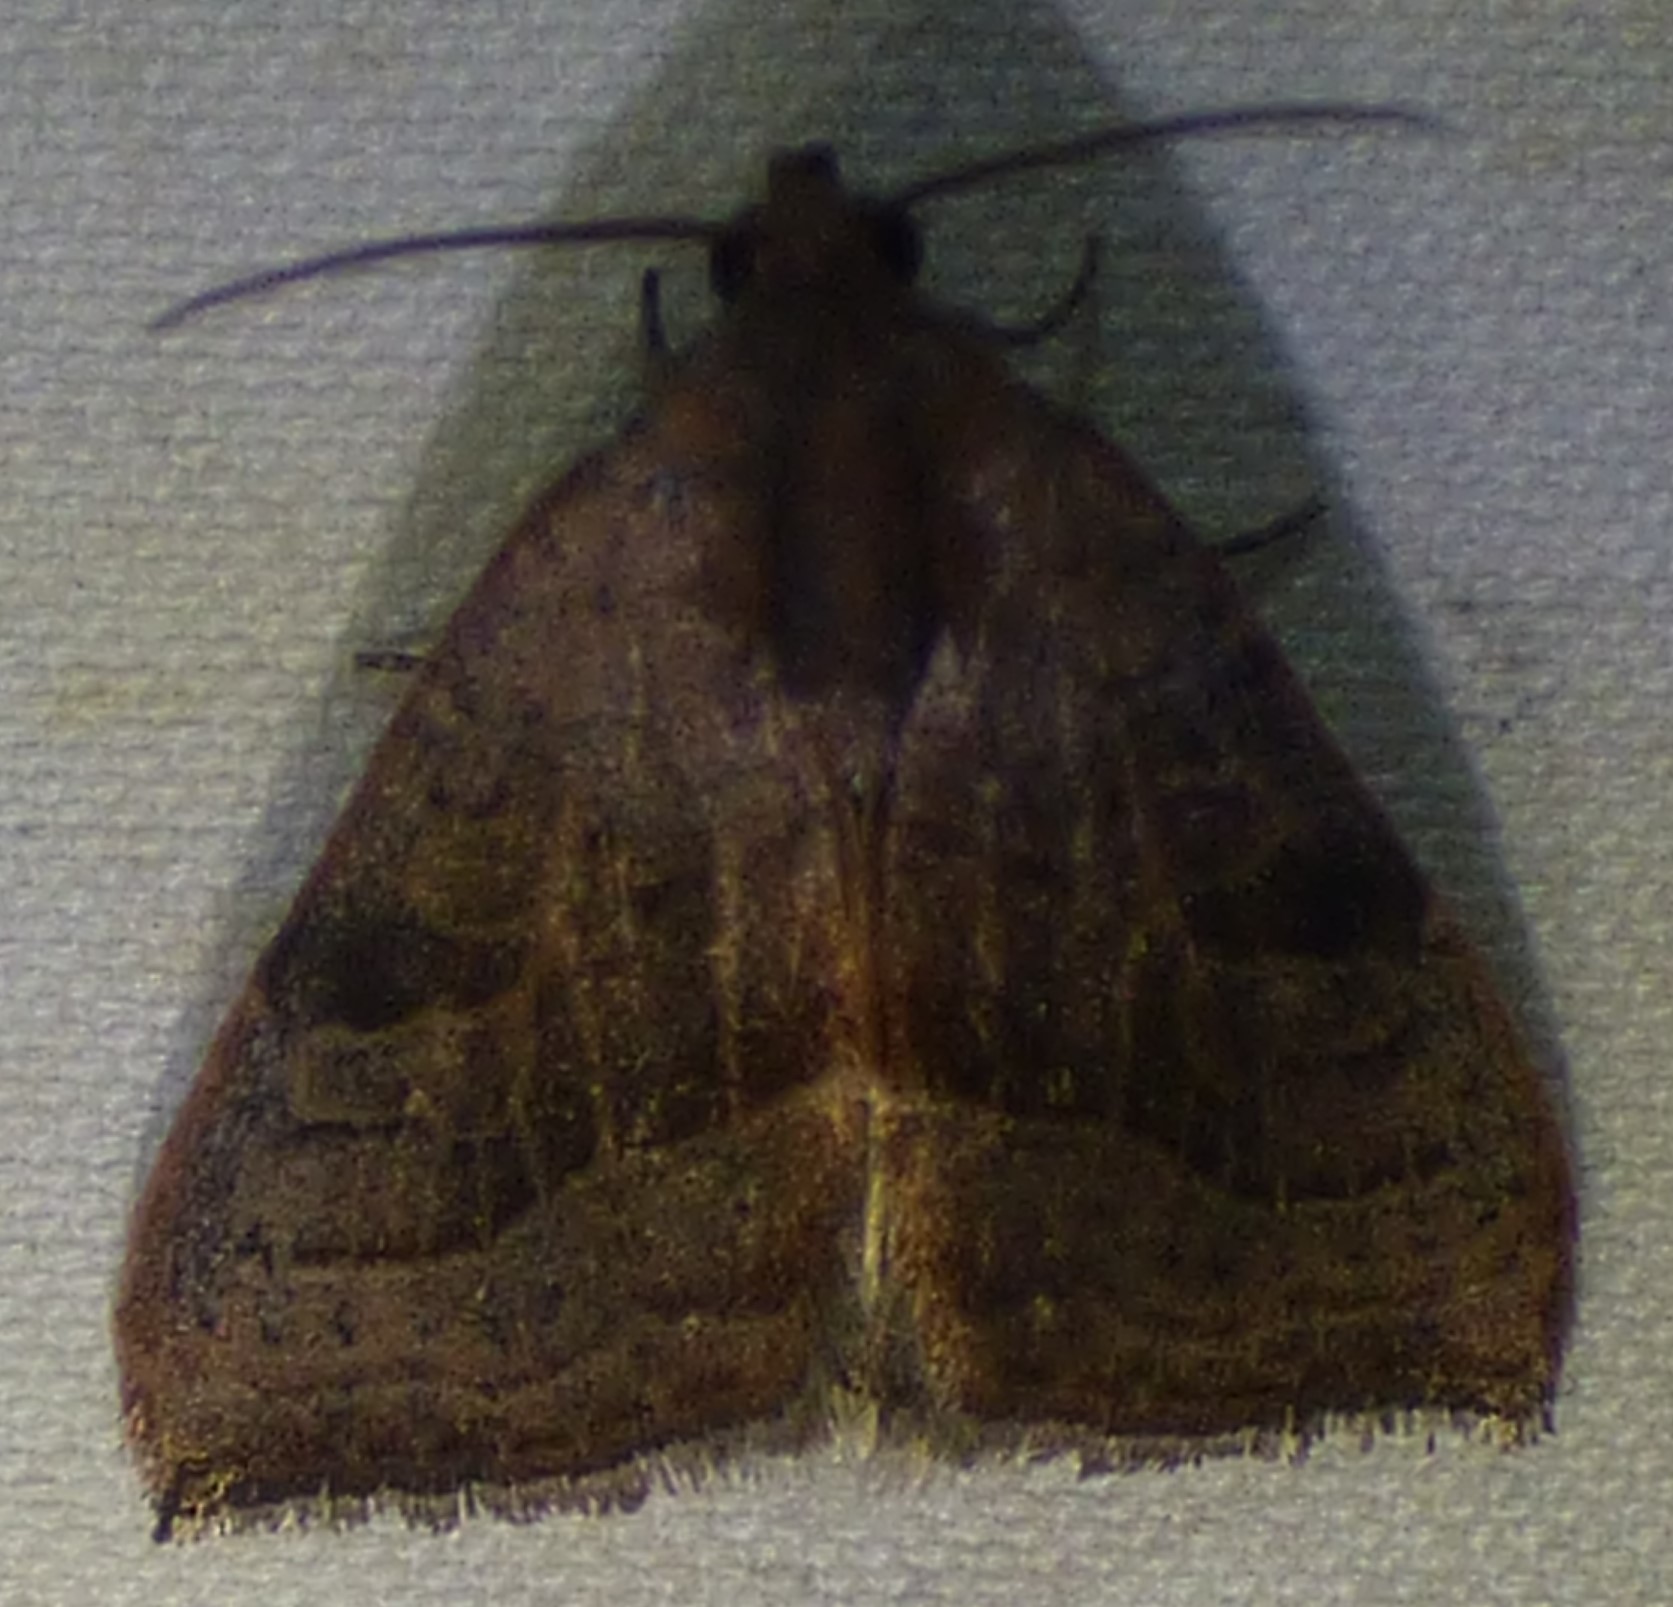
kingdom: Animalia
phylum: Arthropoda
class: Insecta
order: Lepidoptera
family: Noctuidae
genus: Galgula
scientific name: Galgula partita
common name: Wedgeling
